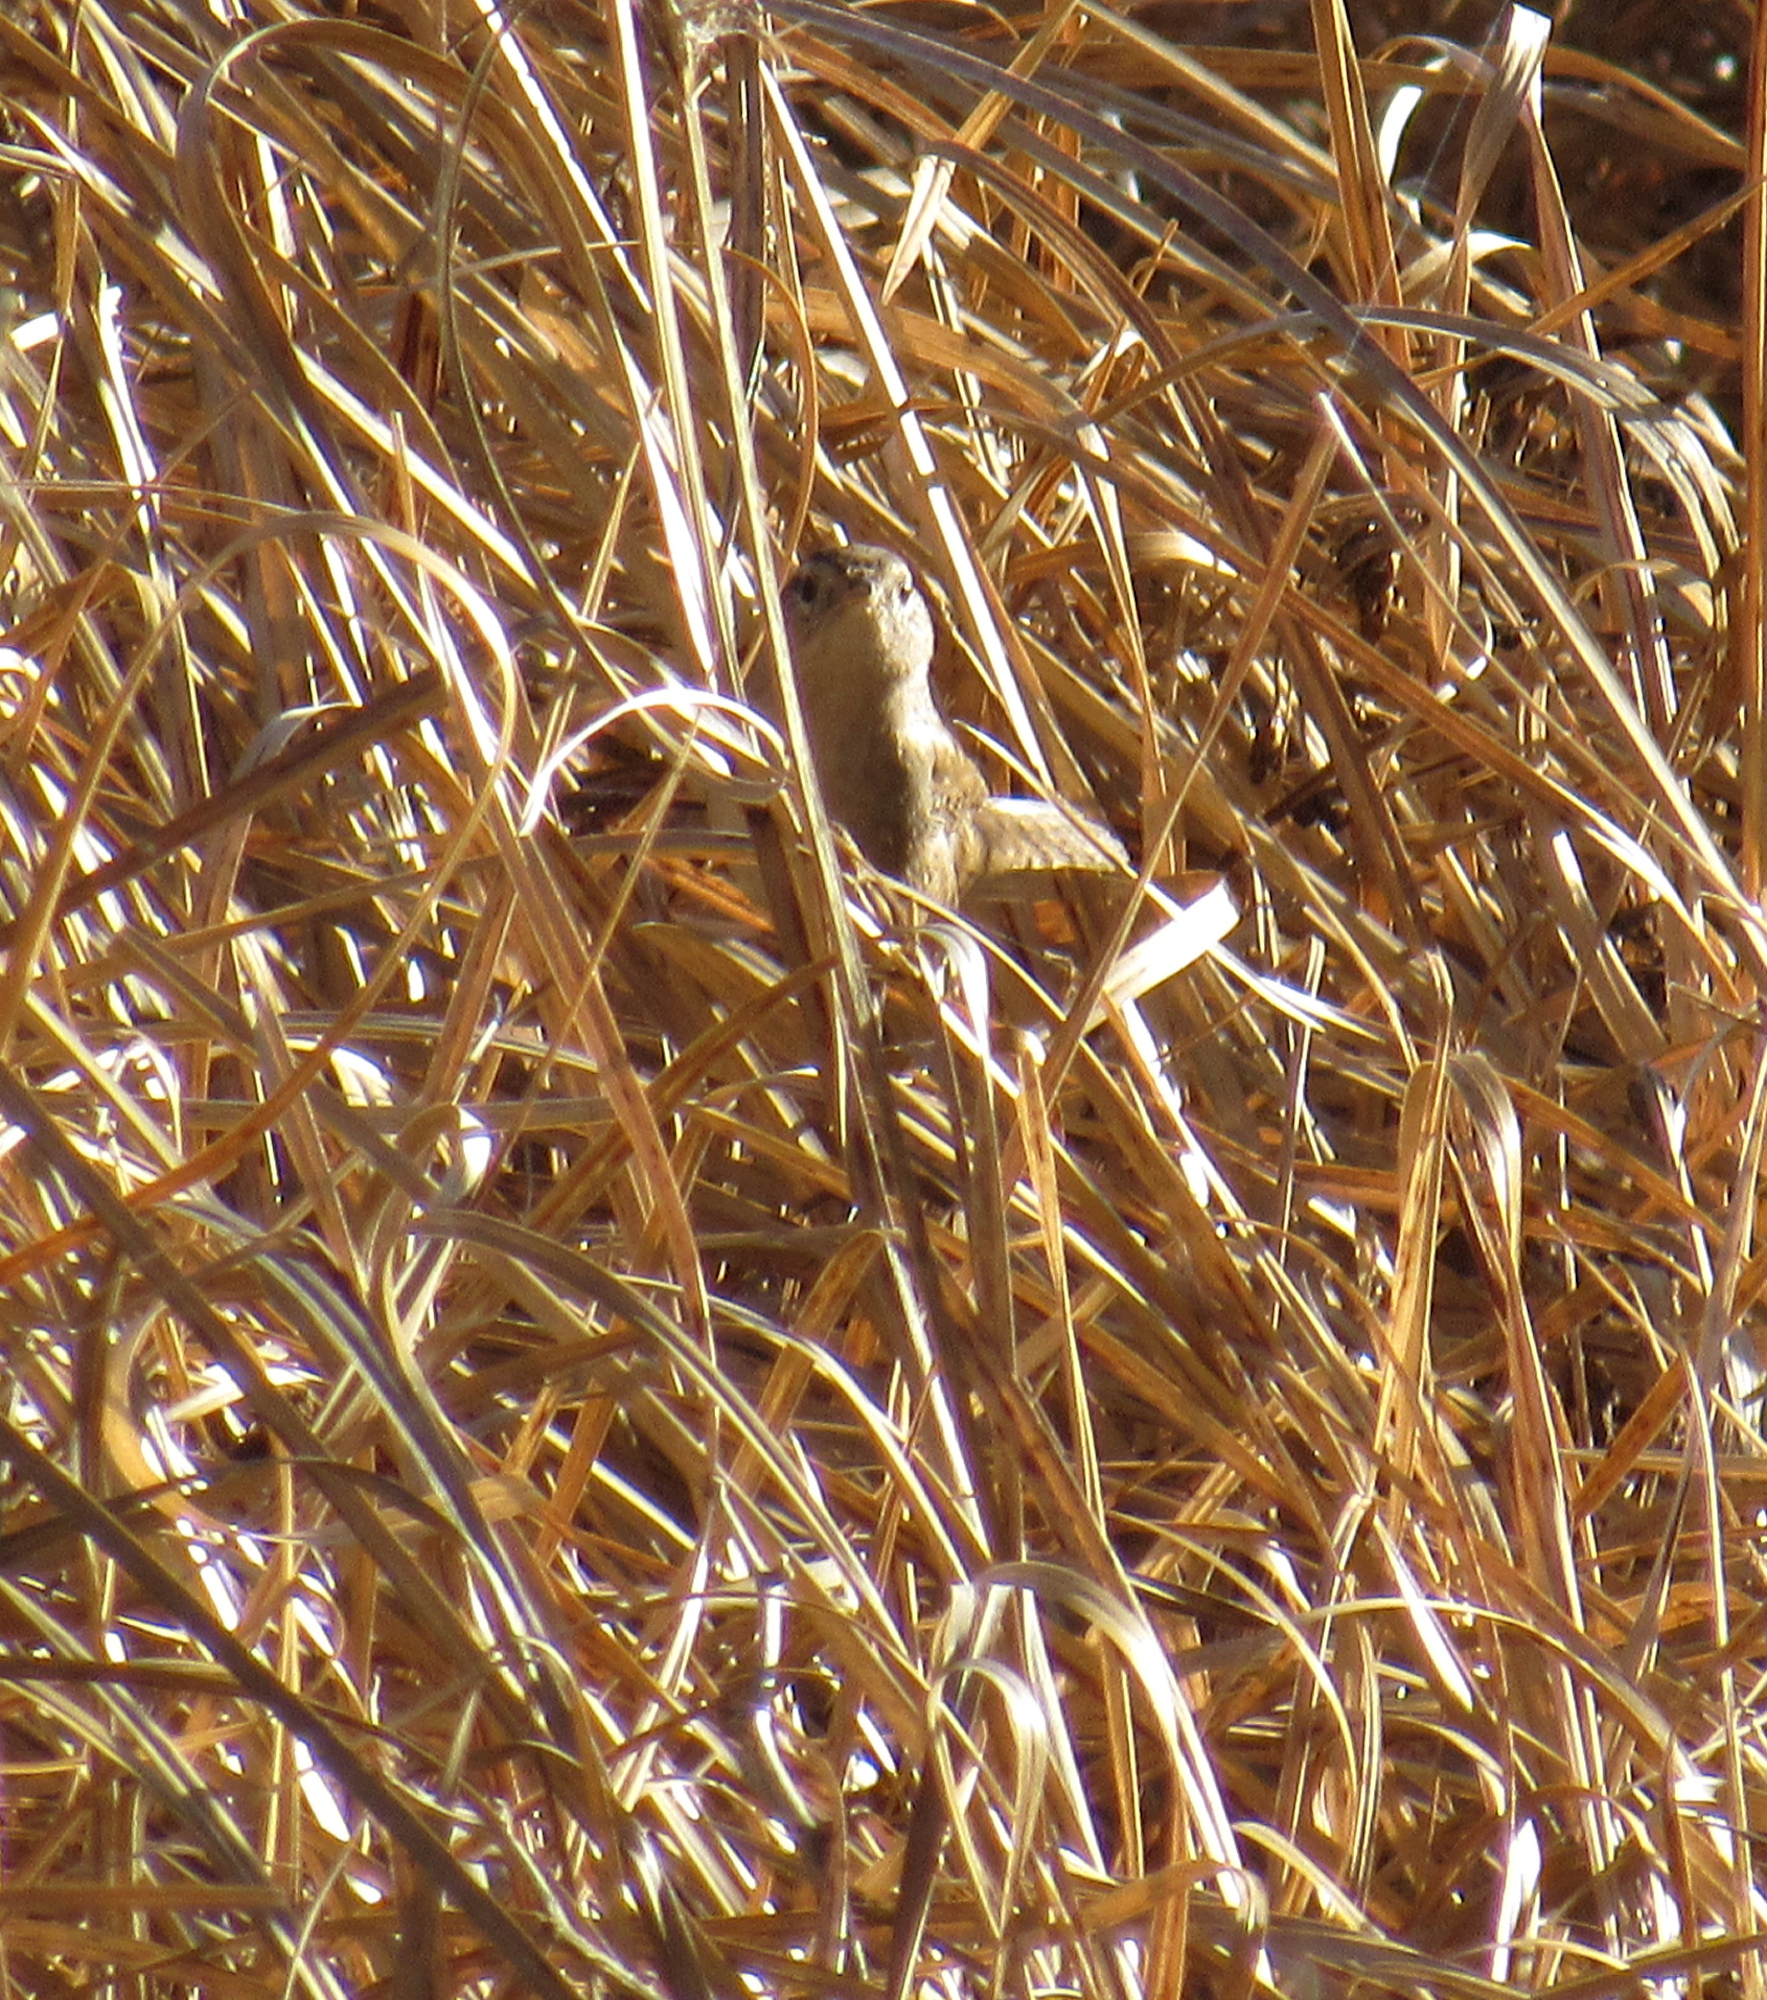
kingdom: Animalia
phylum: Chordata
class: Aves
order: Passeriformes
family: Troglodytidae
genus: Cistothorus
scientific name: Cistothorus palustris
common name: Marsh wren
